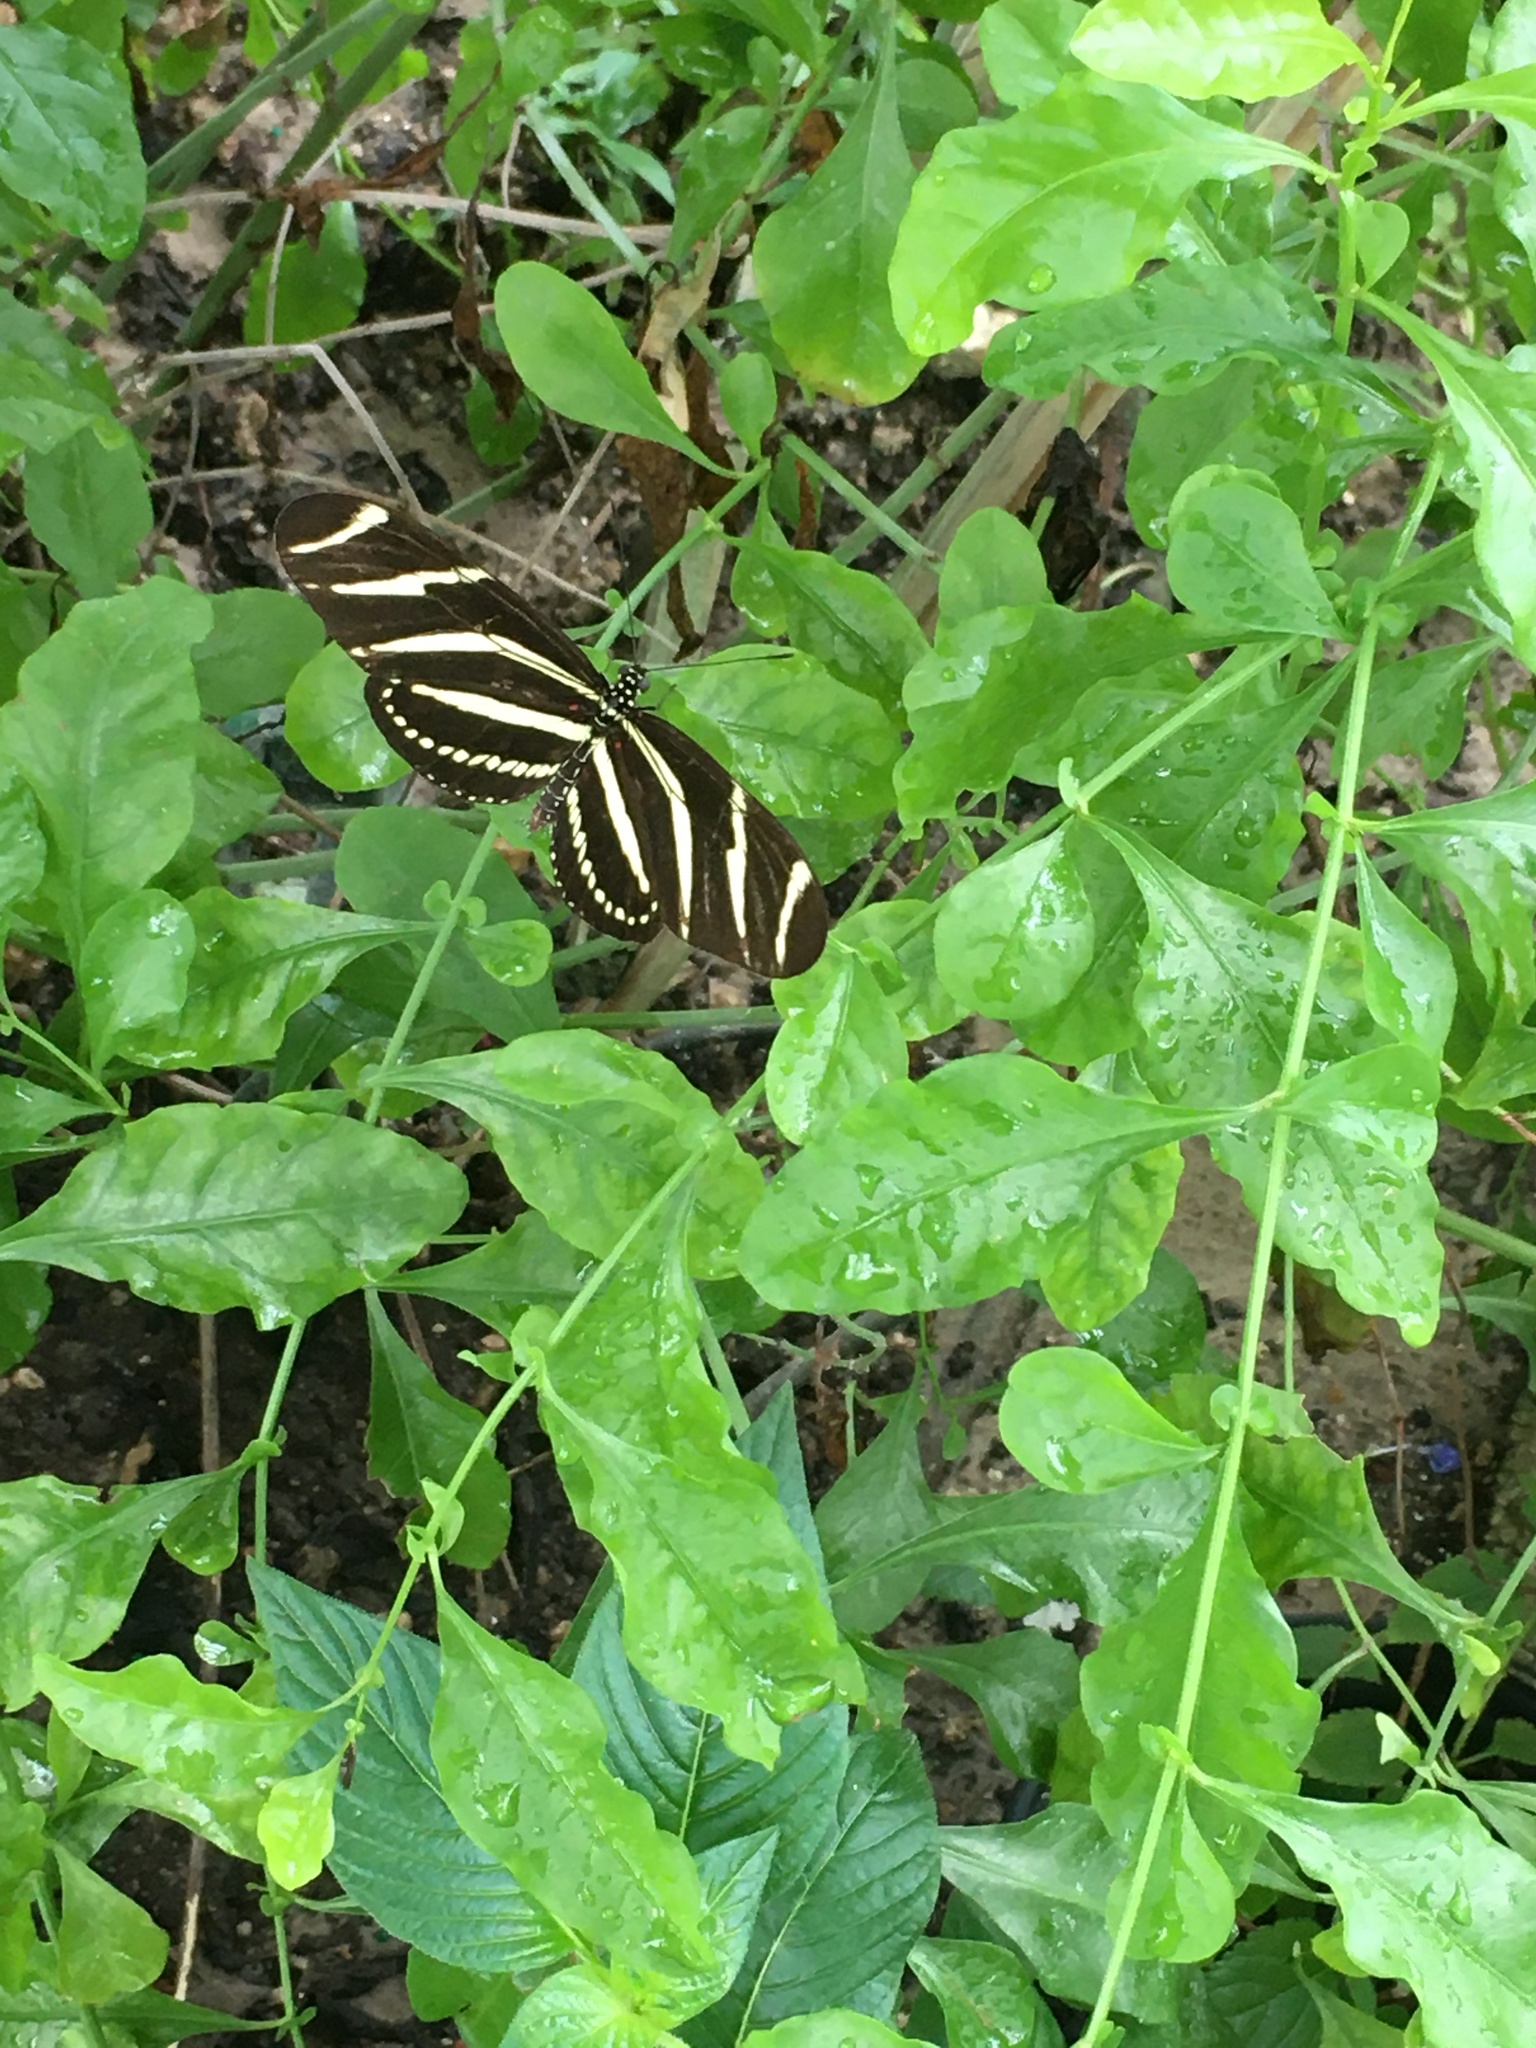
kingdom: Animalia
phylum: Arthropoda
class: Insecta
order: Lepidoptera
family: Nymphalidae
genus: Heliconius
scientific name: Heliconius charithonia
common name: Zebra long wing
